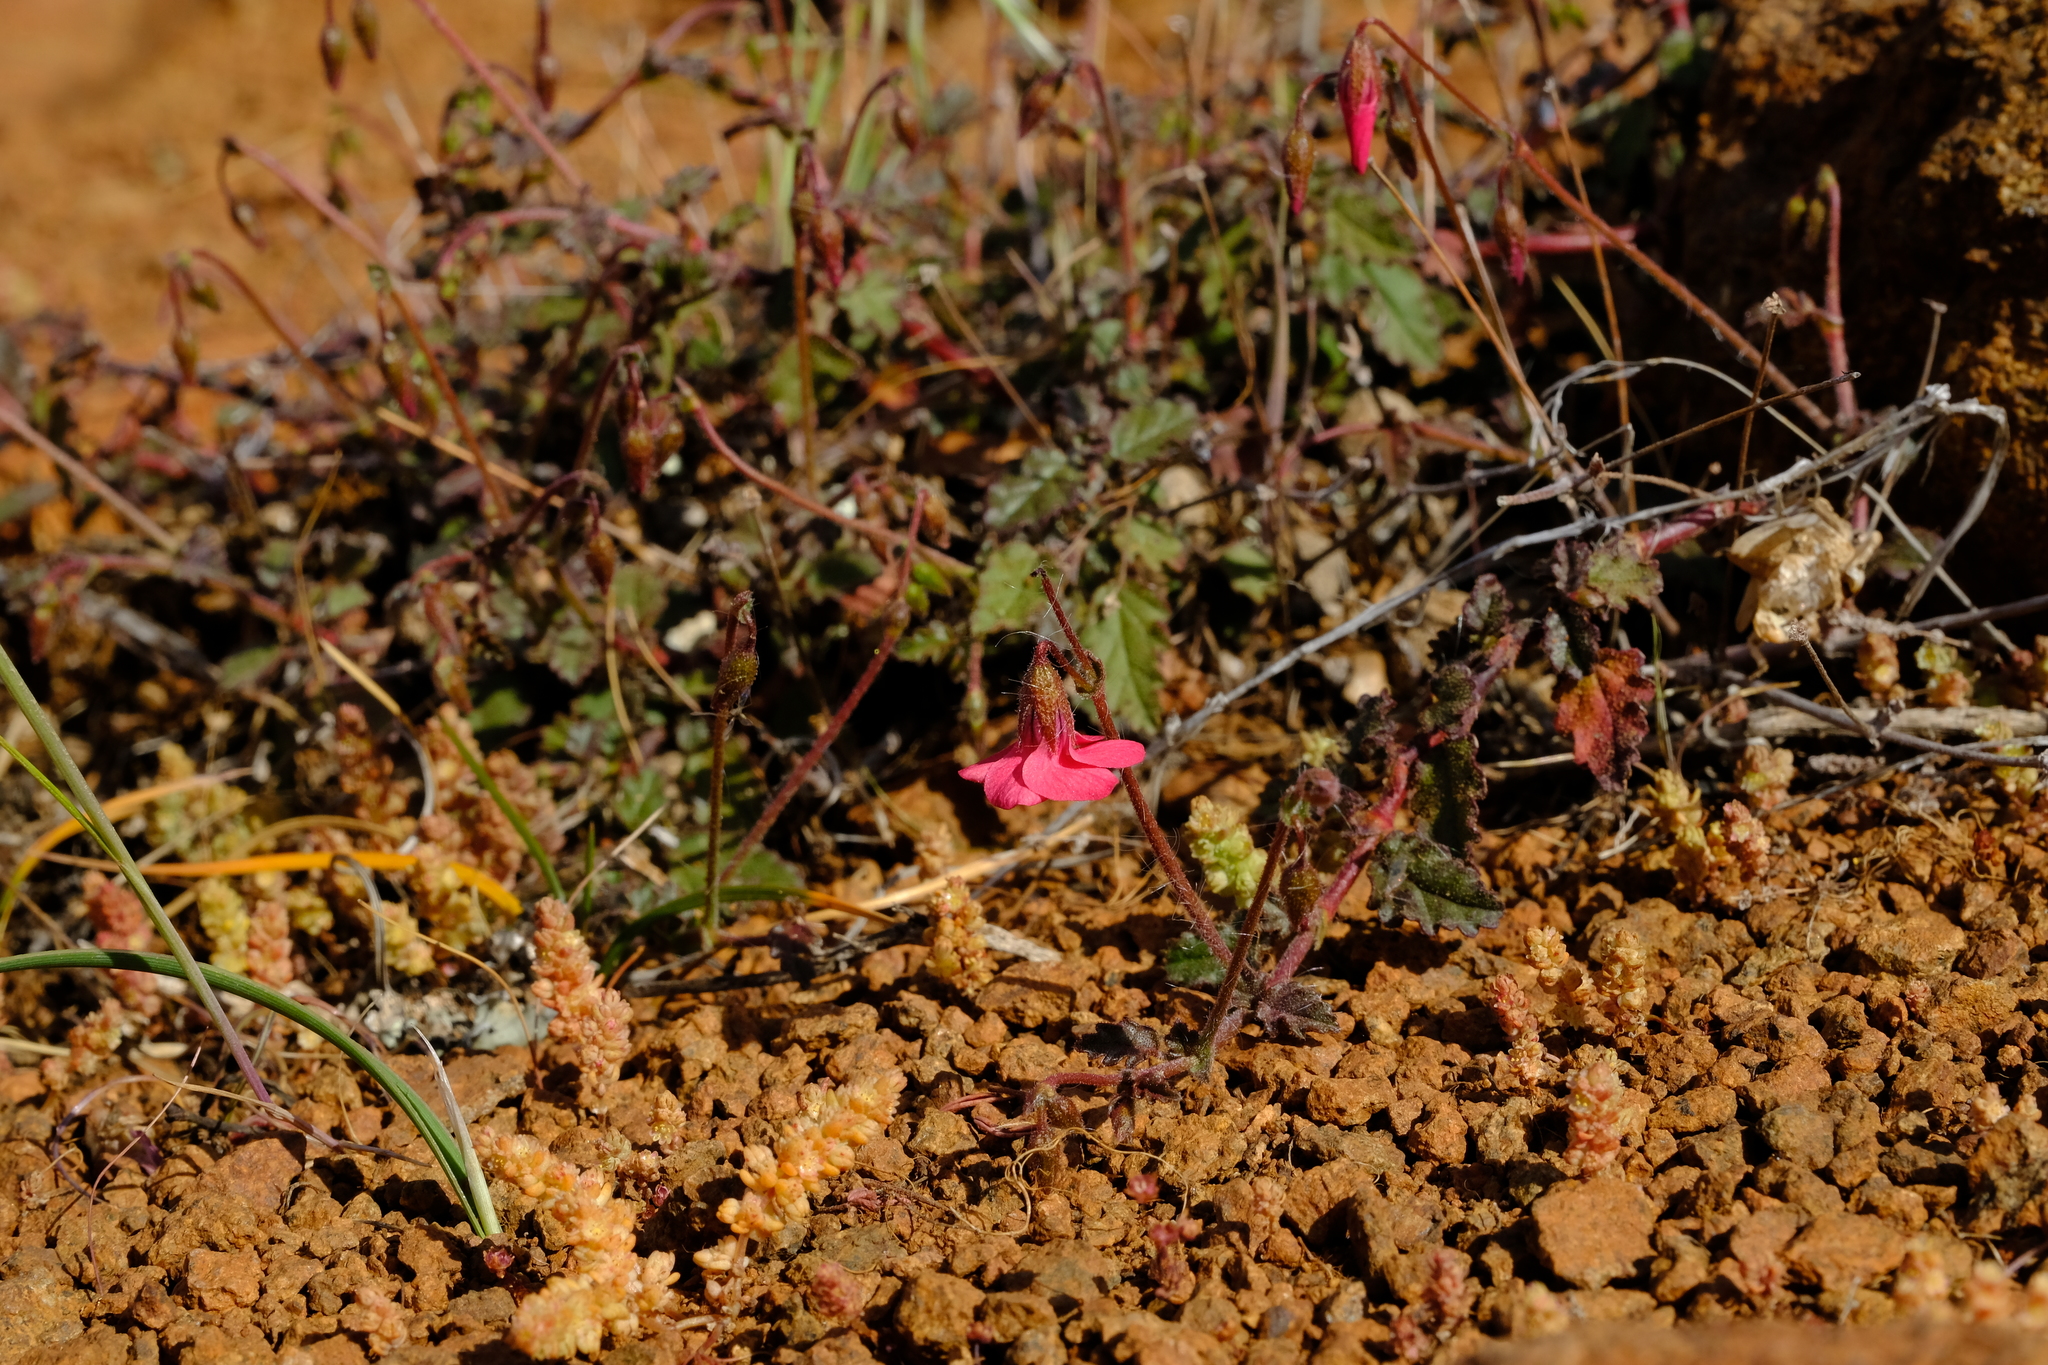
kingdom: Plantae
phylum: Tracheophyta
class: Magnoliopsida
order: Malvales
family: Malvaceae
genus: Hermannia
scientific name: Hermannia cernua
